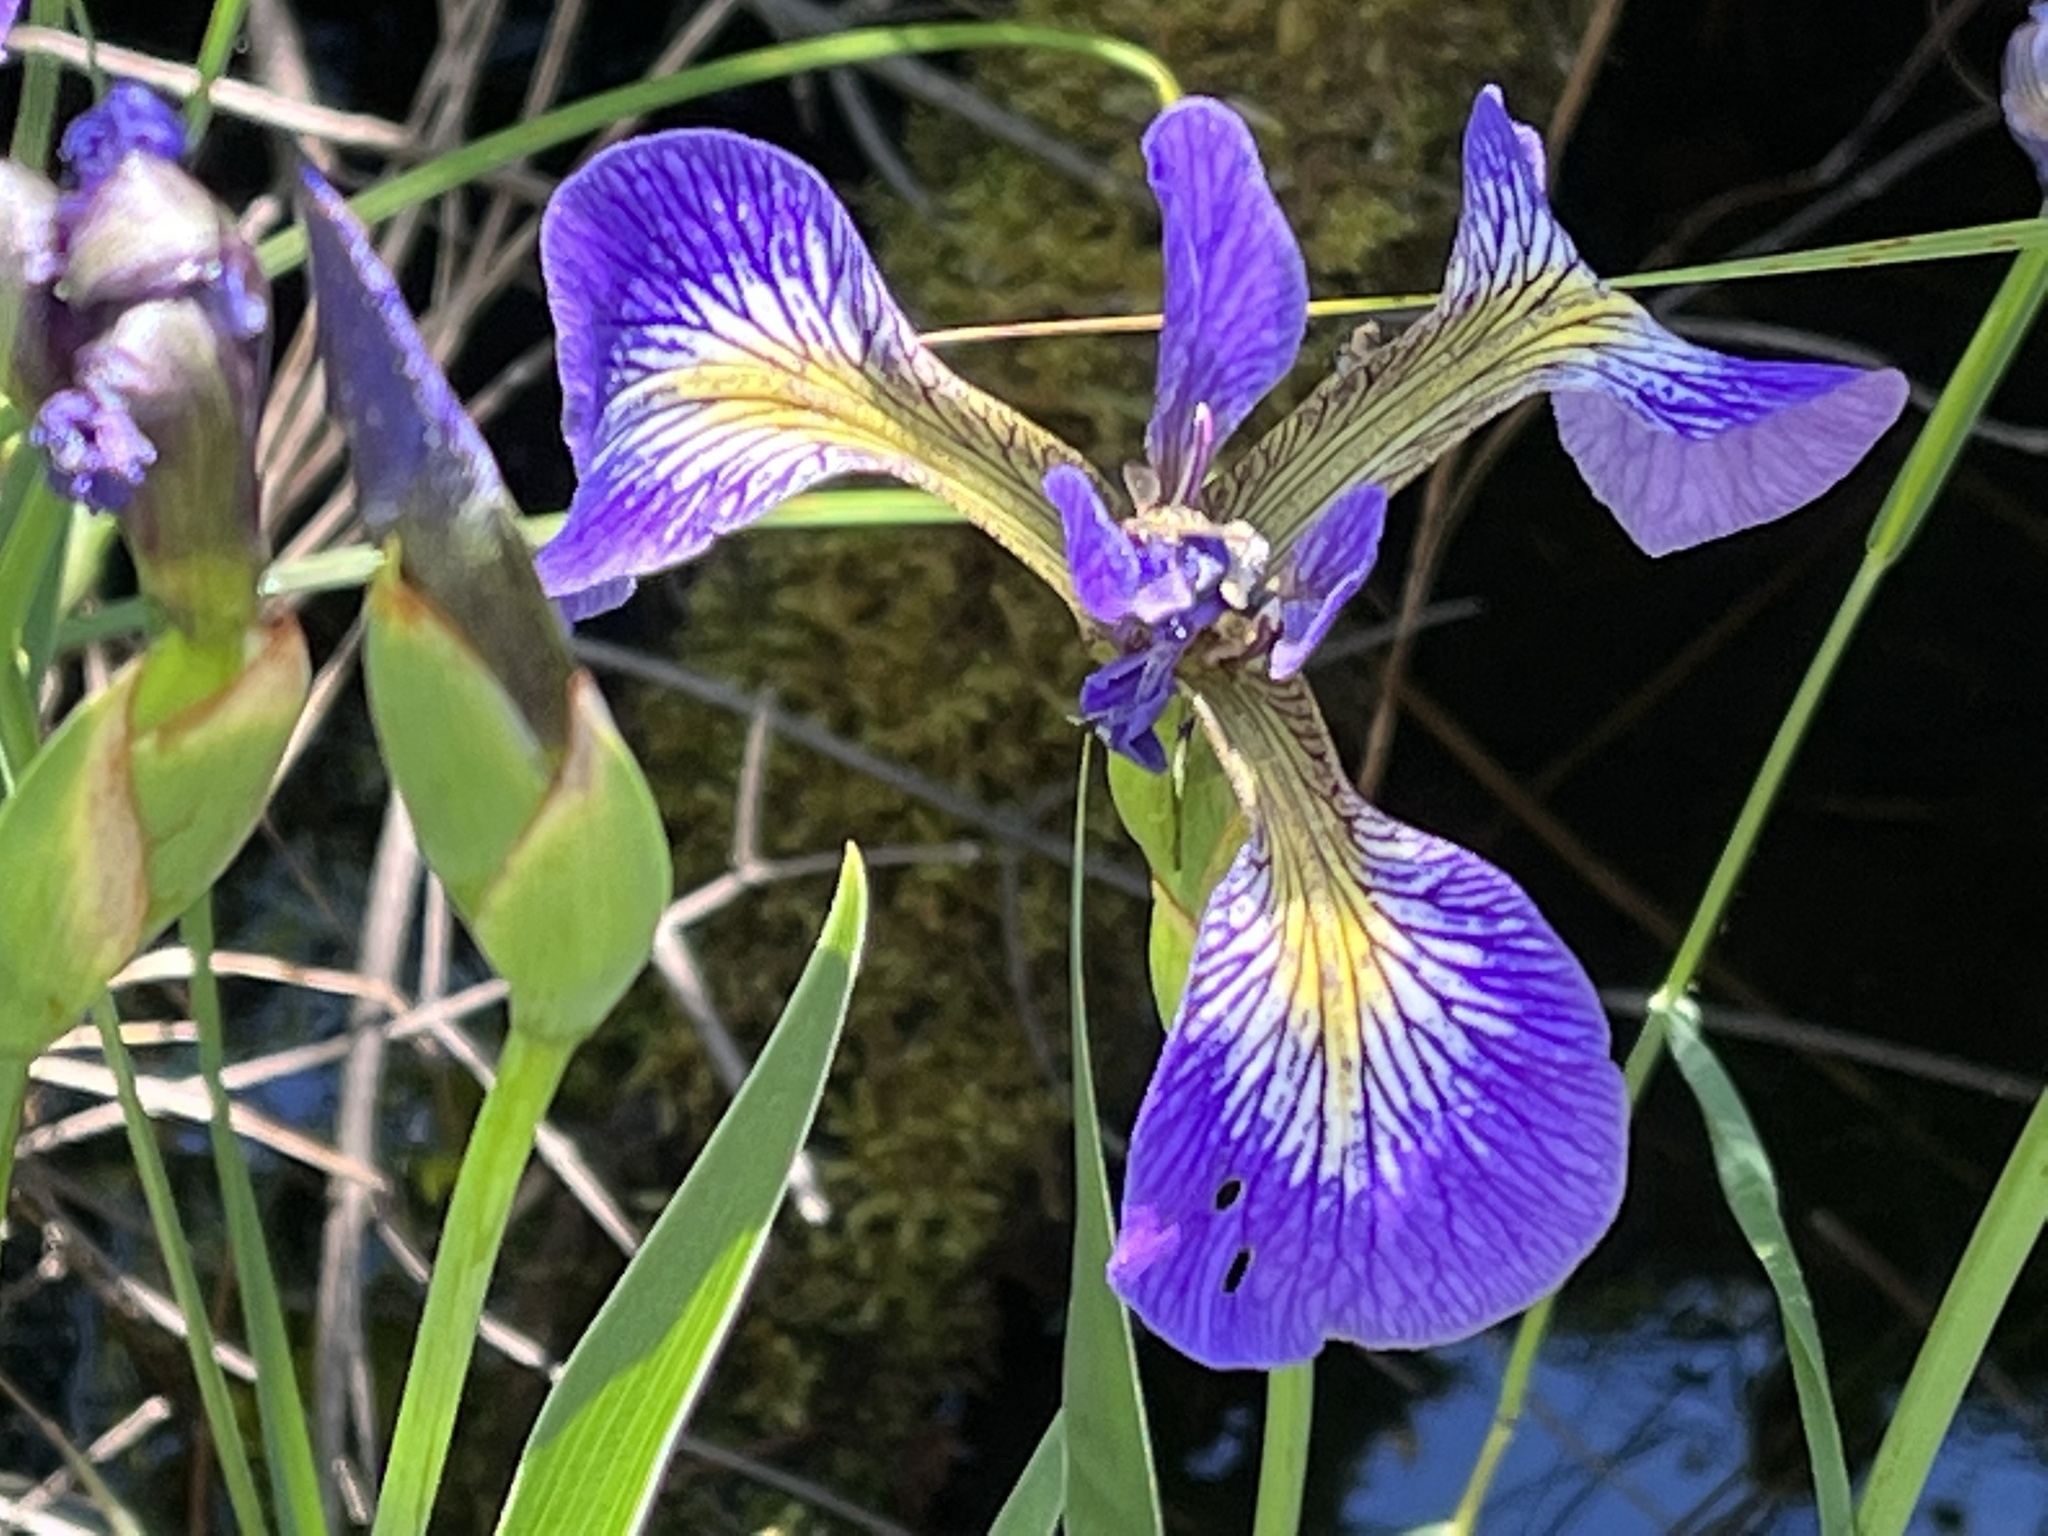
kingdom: Plantae
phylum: Tracheophyta
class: Liliopsida
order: Asparagales
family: Iridaceae
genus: Iris
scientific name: Iris versicolor
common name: Purple iris
